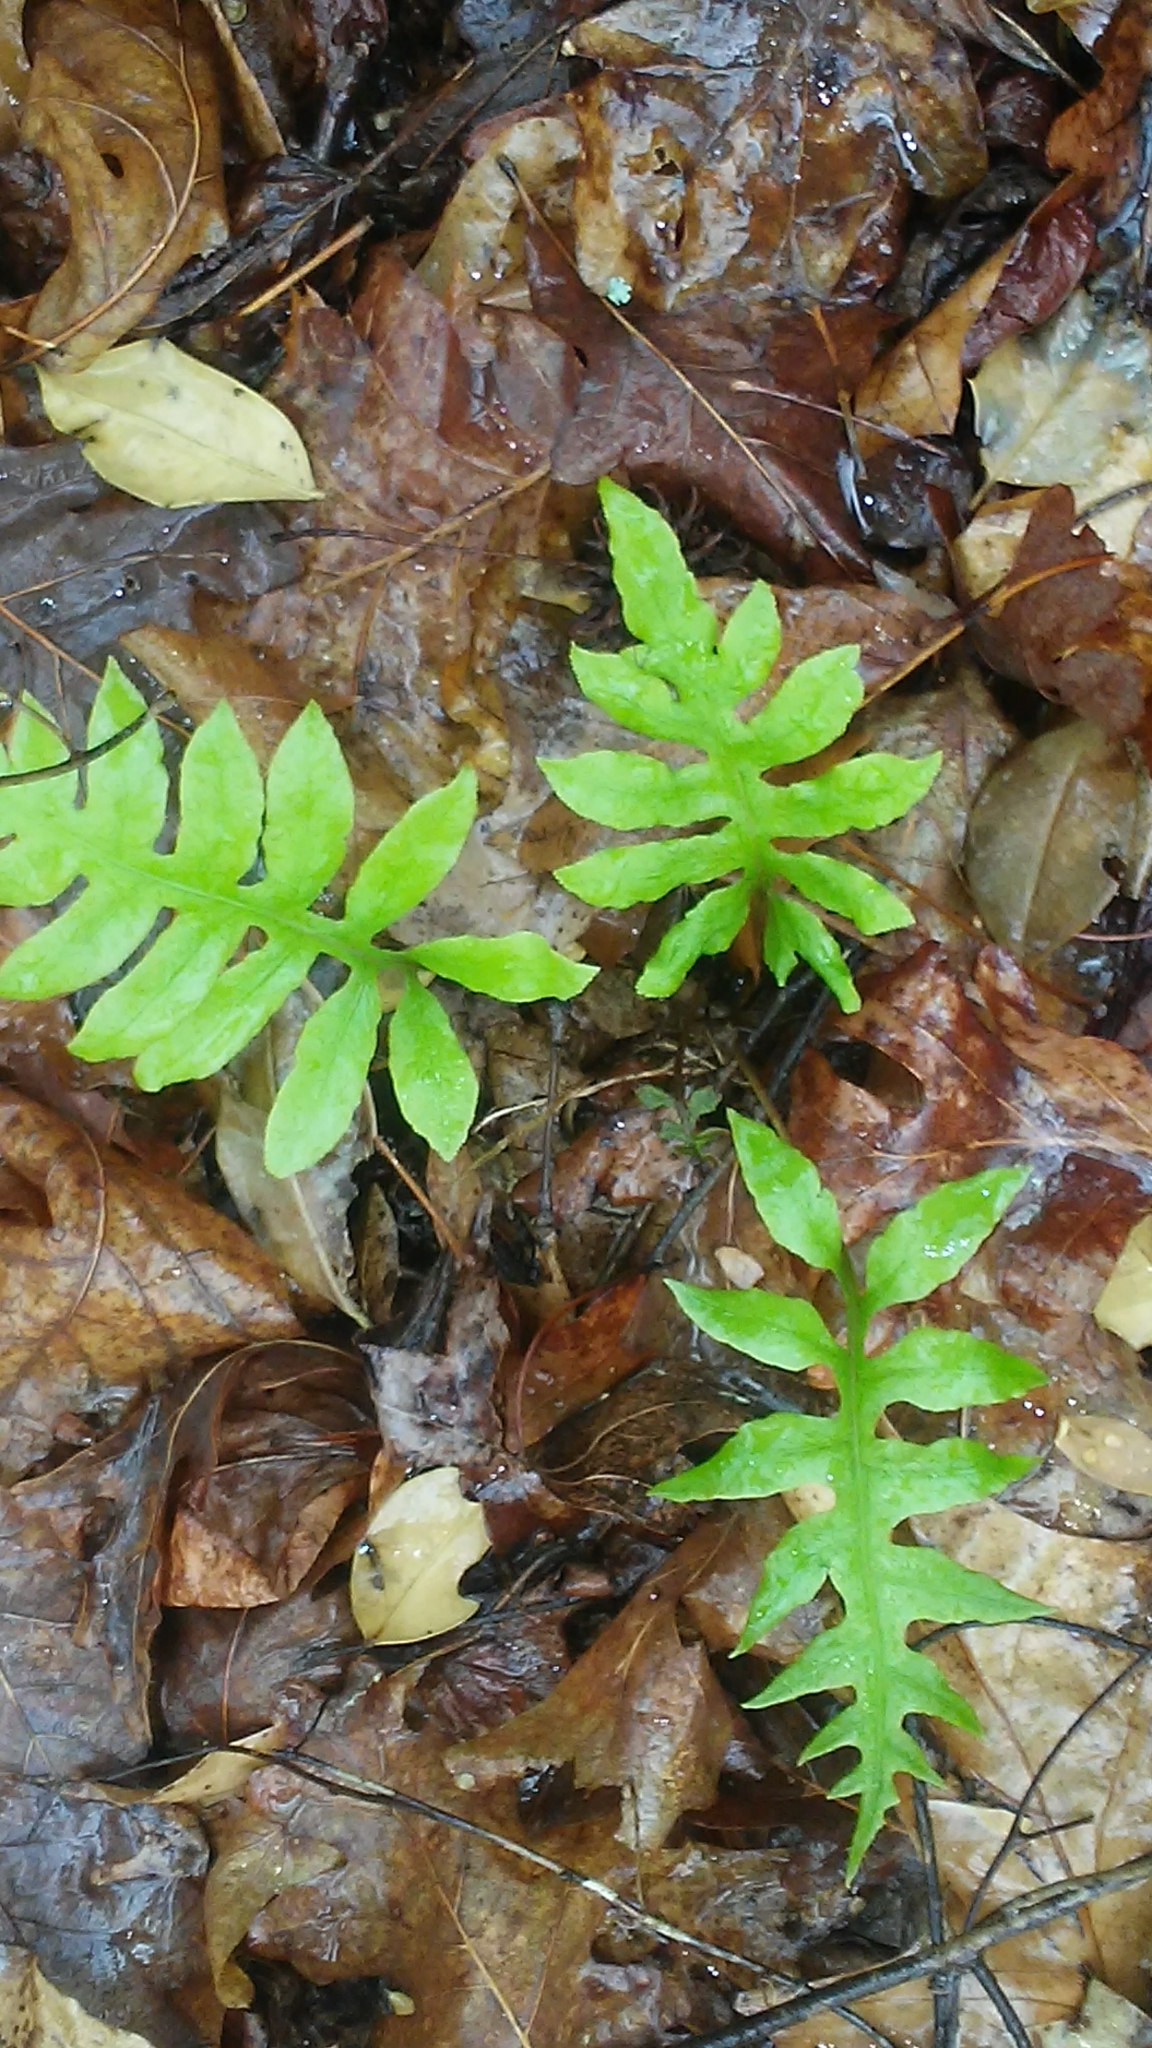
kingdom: Plantae
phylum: Tracheophyta
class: Polypodiopsida
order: Polypodiales
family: Blechnaceae
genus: Lorinseria
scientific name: Lorinseria areolata
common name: Dwarf chain fern
